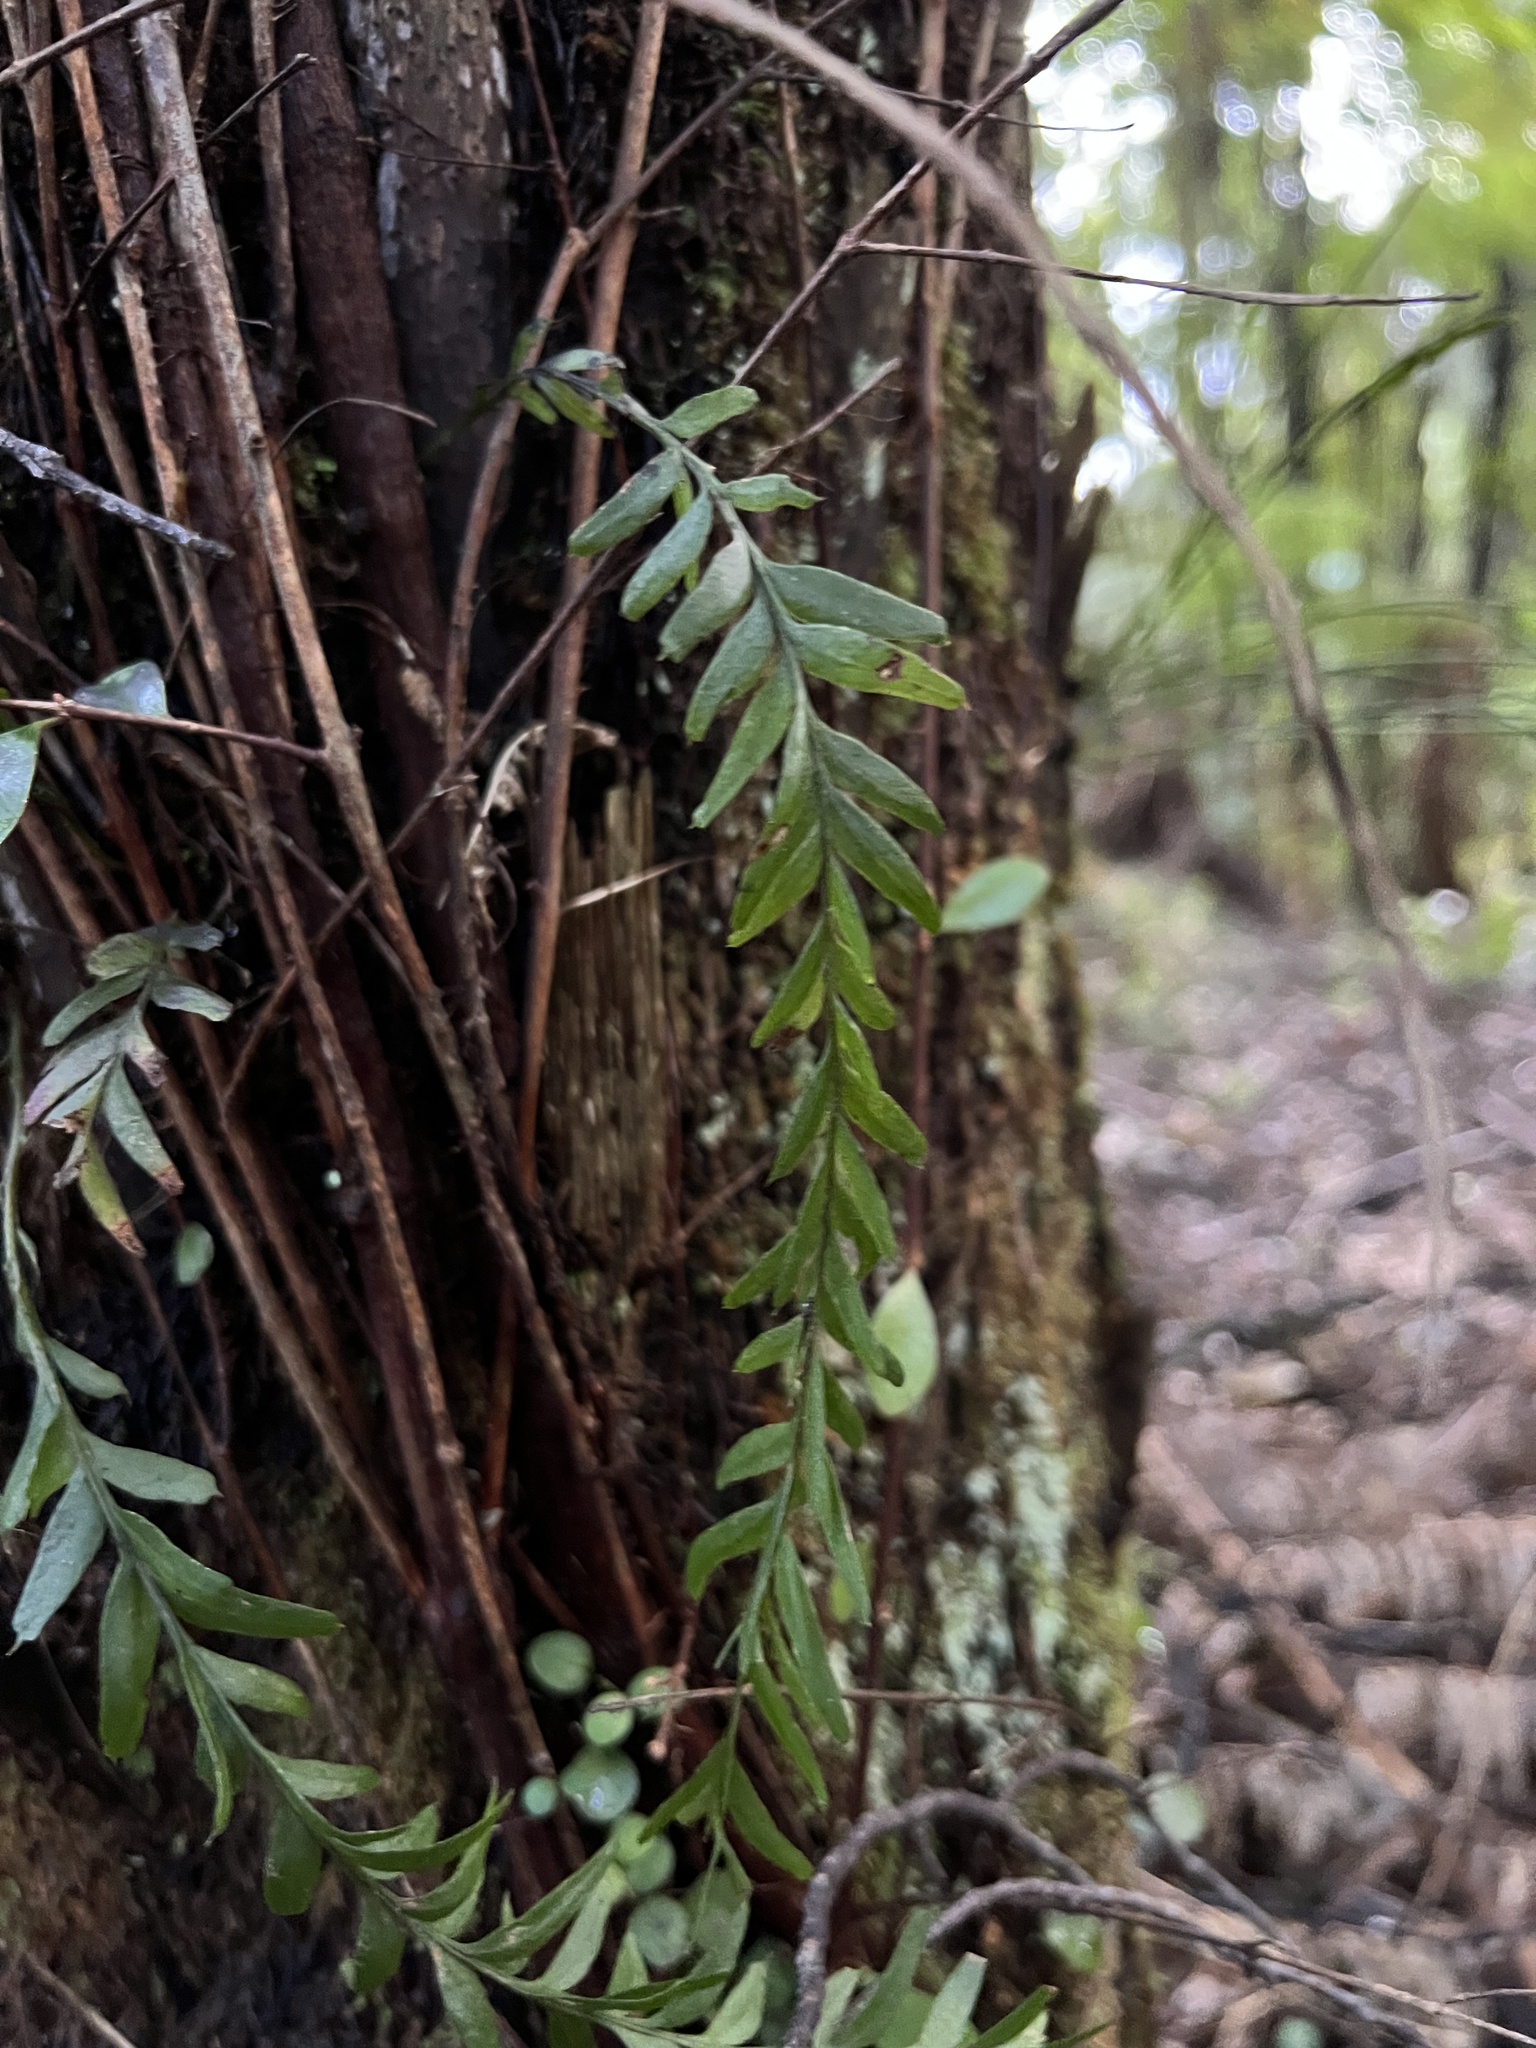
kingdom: Plantae
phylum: Tracheophyta
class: Polypodiopsida
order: Psilotales
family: Psilotaceae
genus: Tmesipteris
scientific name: Tmesipteris elongata
